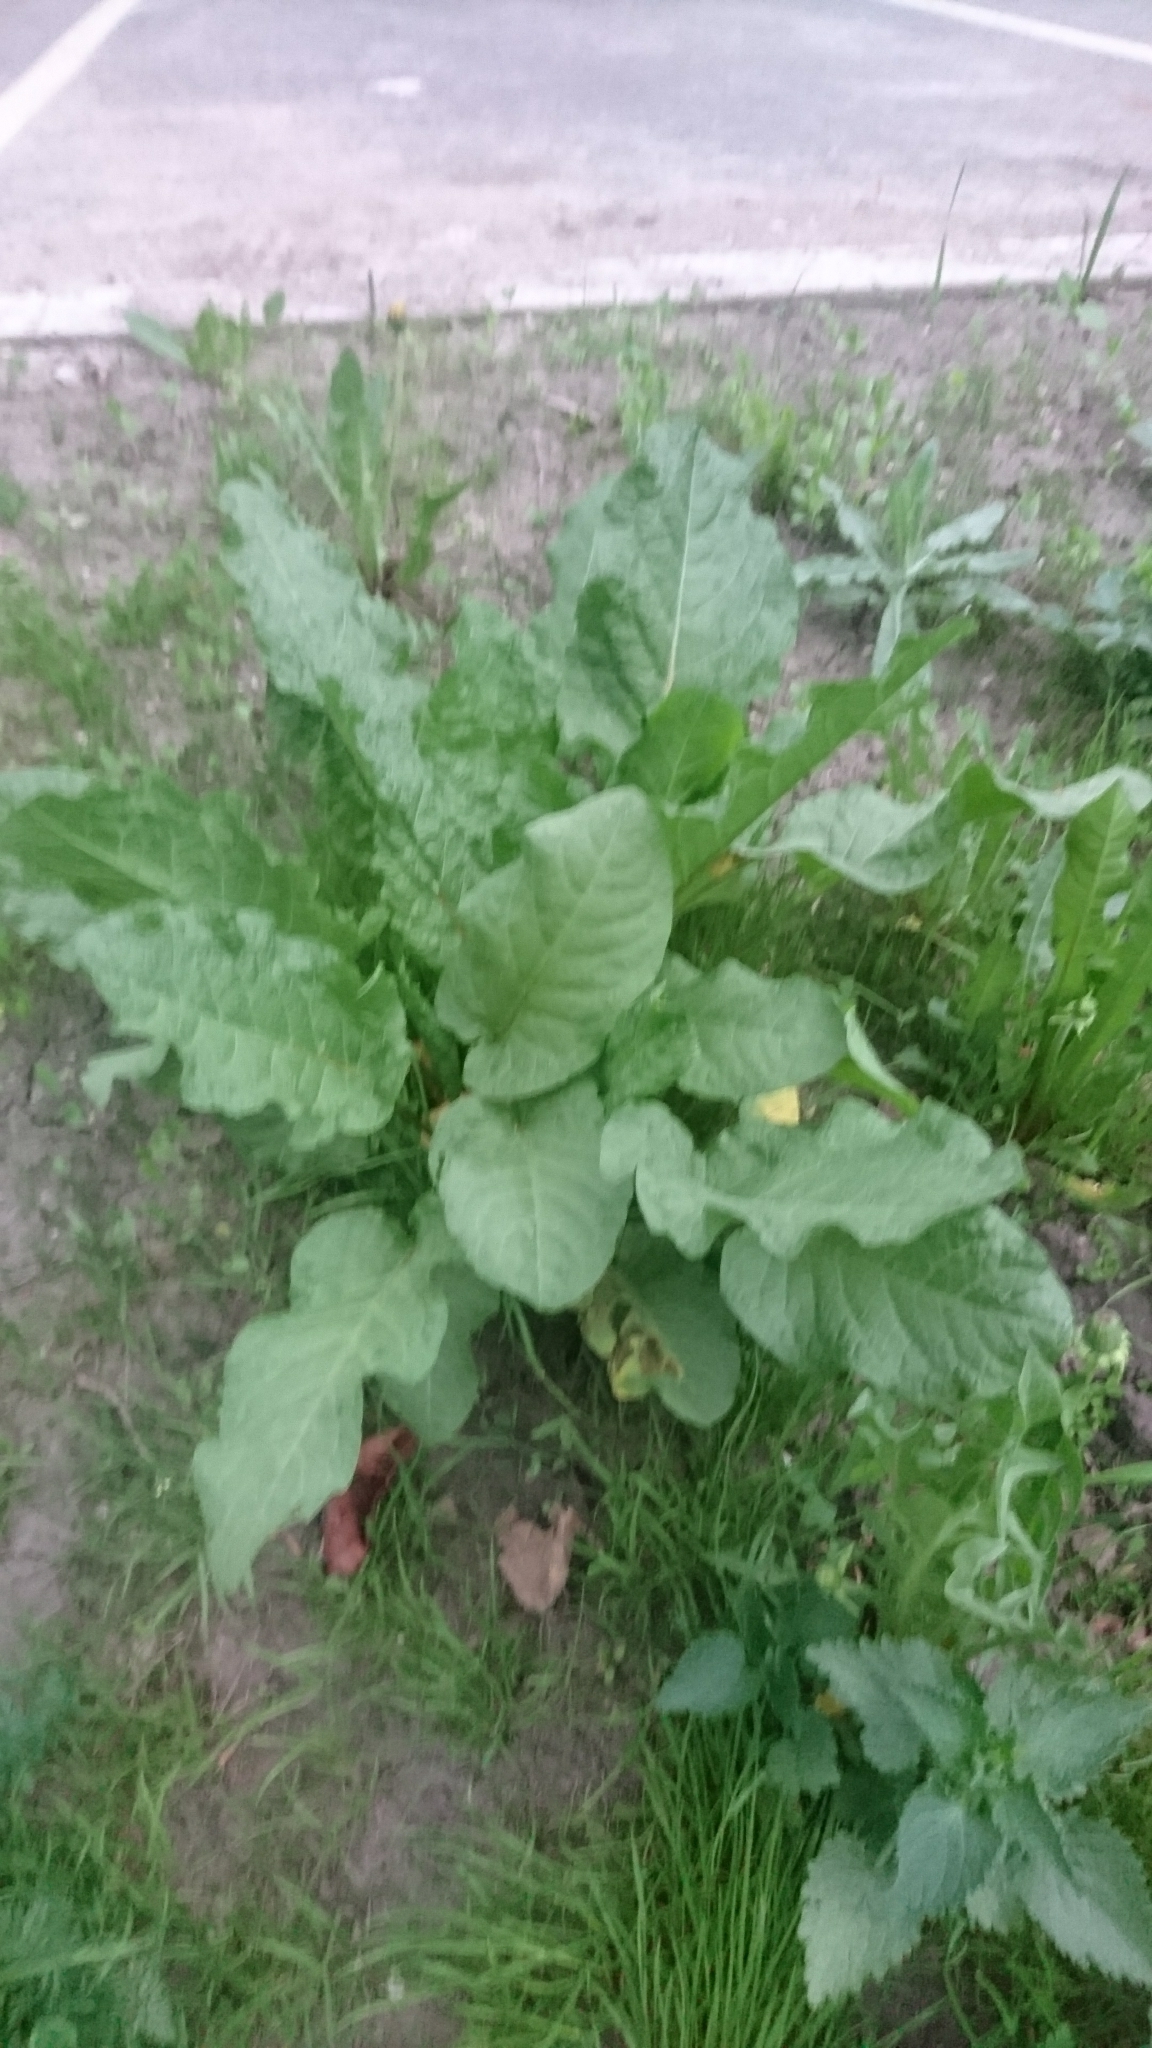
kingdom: Plantae
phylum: Tracheophyta
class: Magnoliopsida
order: Caryophyllales
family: Polygonaceae
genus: Rumex
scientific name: Rumex obtusifolius
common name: Bitter dock
